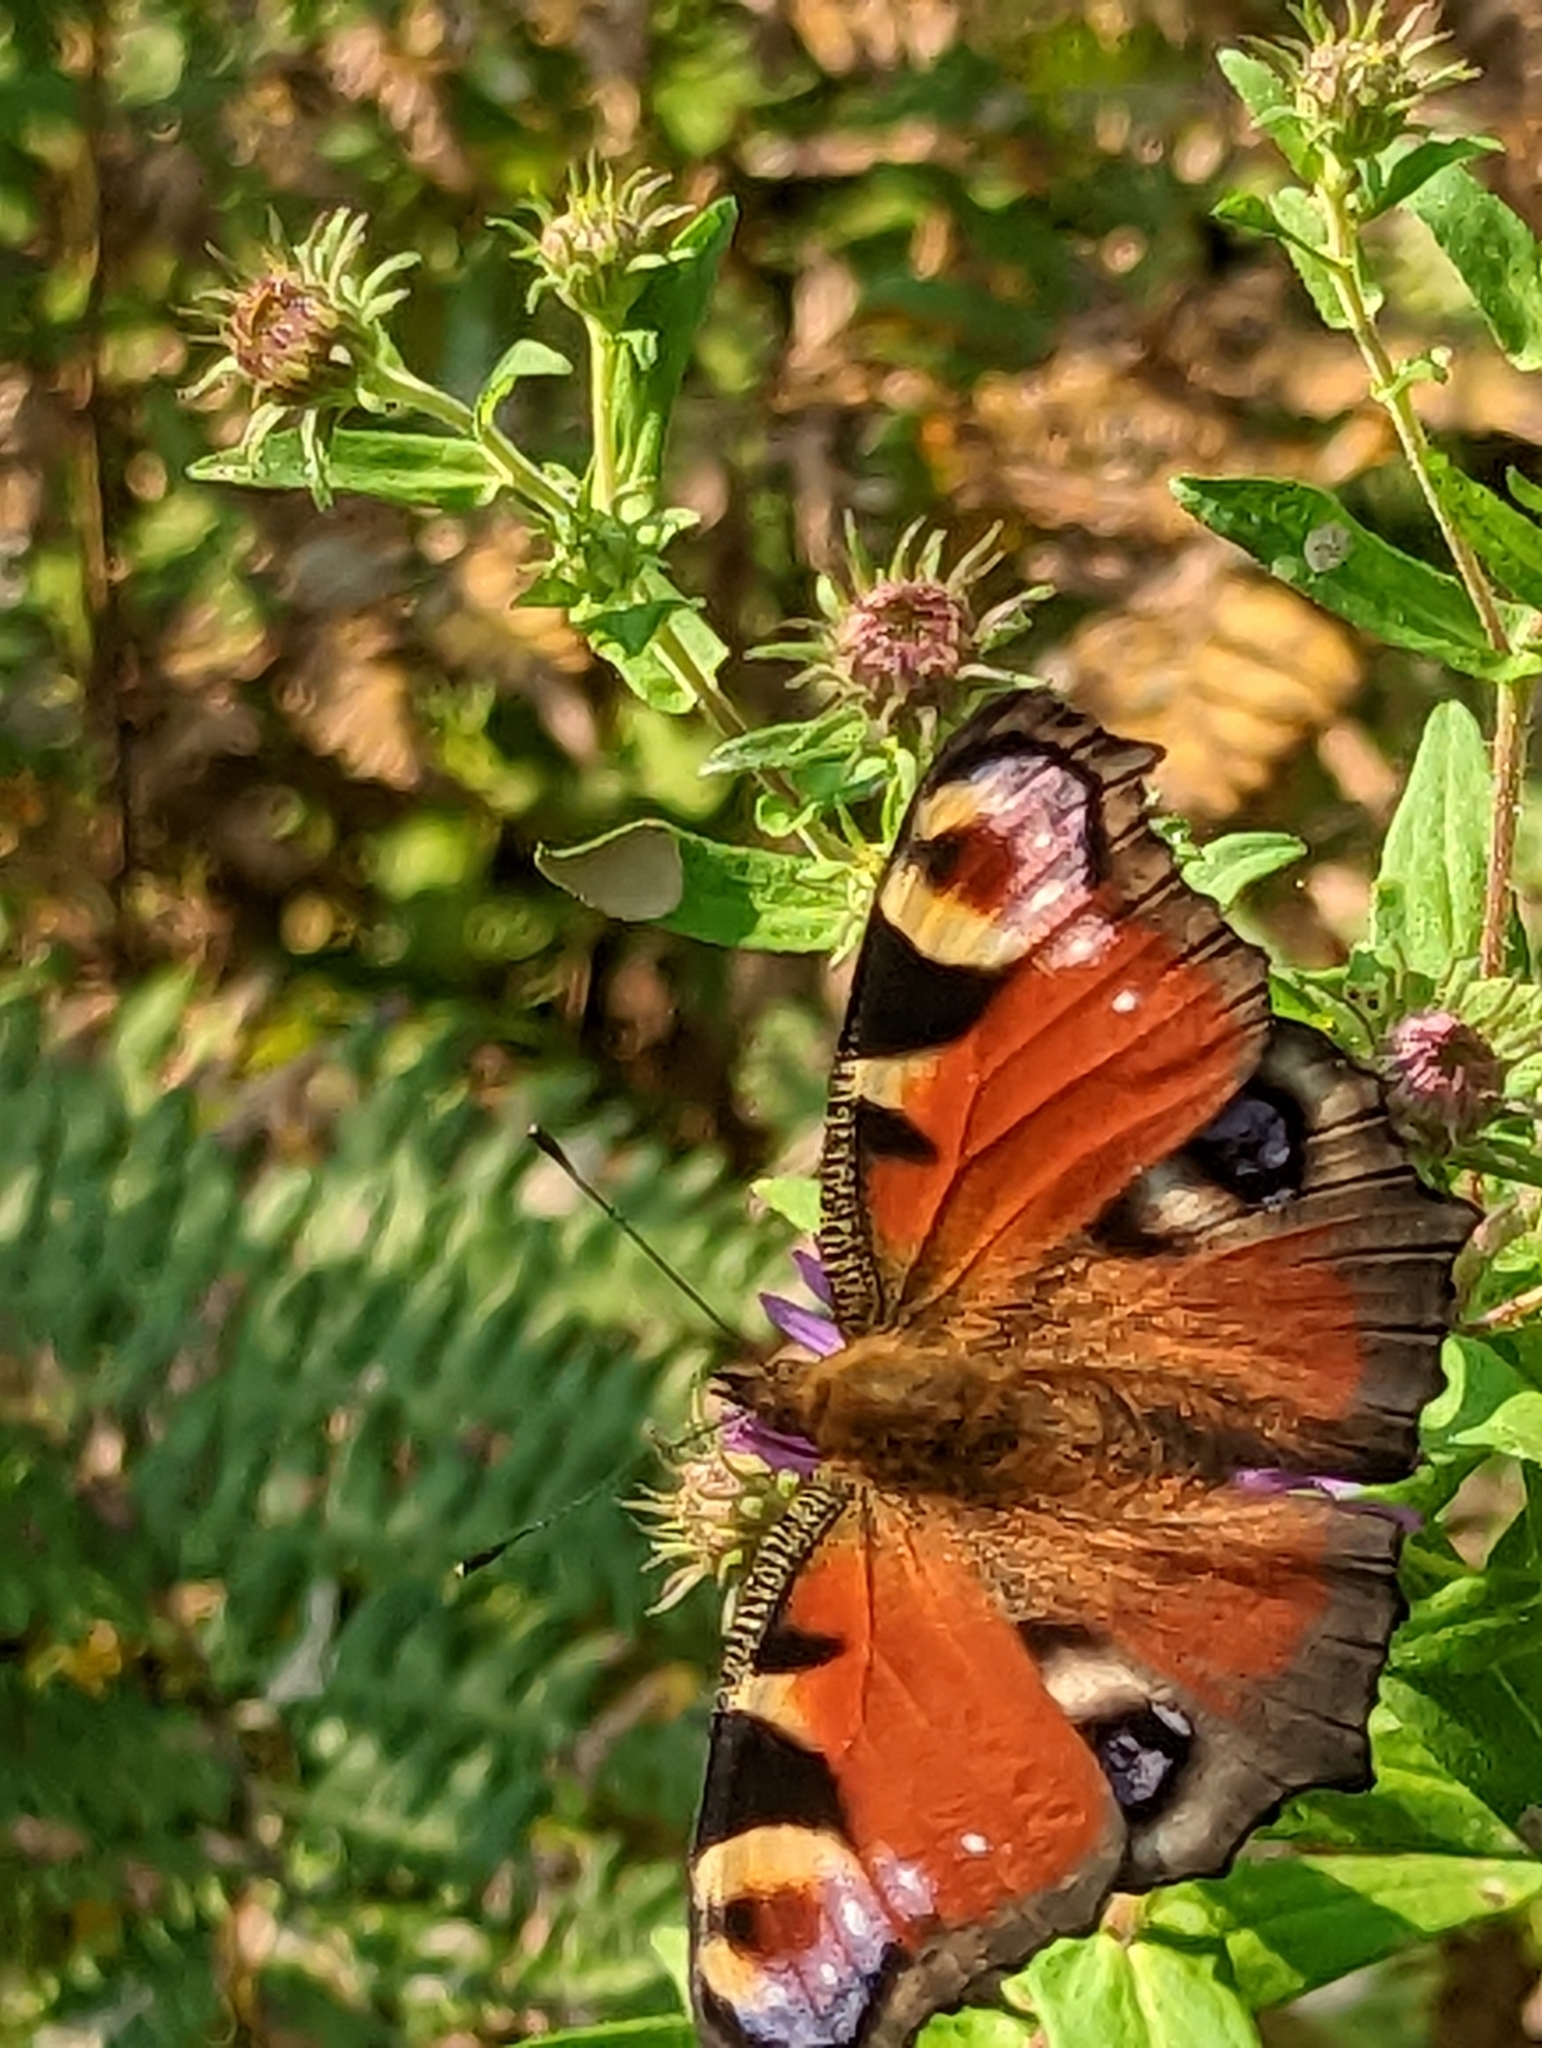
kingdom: Animalia
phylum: Arthropoda
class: Insecta
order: Lepidoptera
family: Nymphalidae
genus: Aglais
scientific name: Aglais io
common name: Peacock
